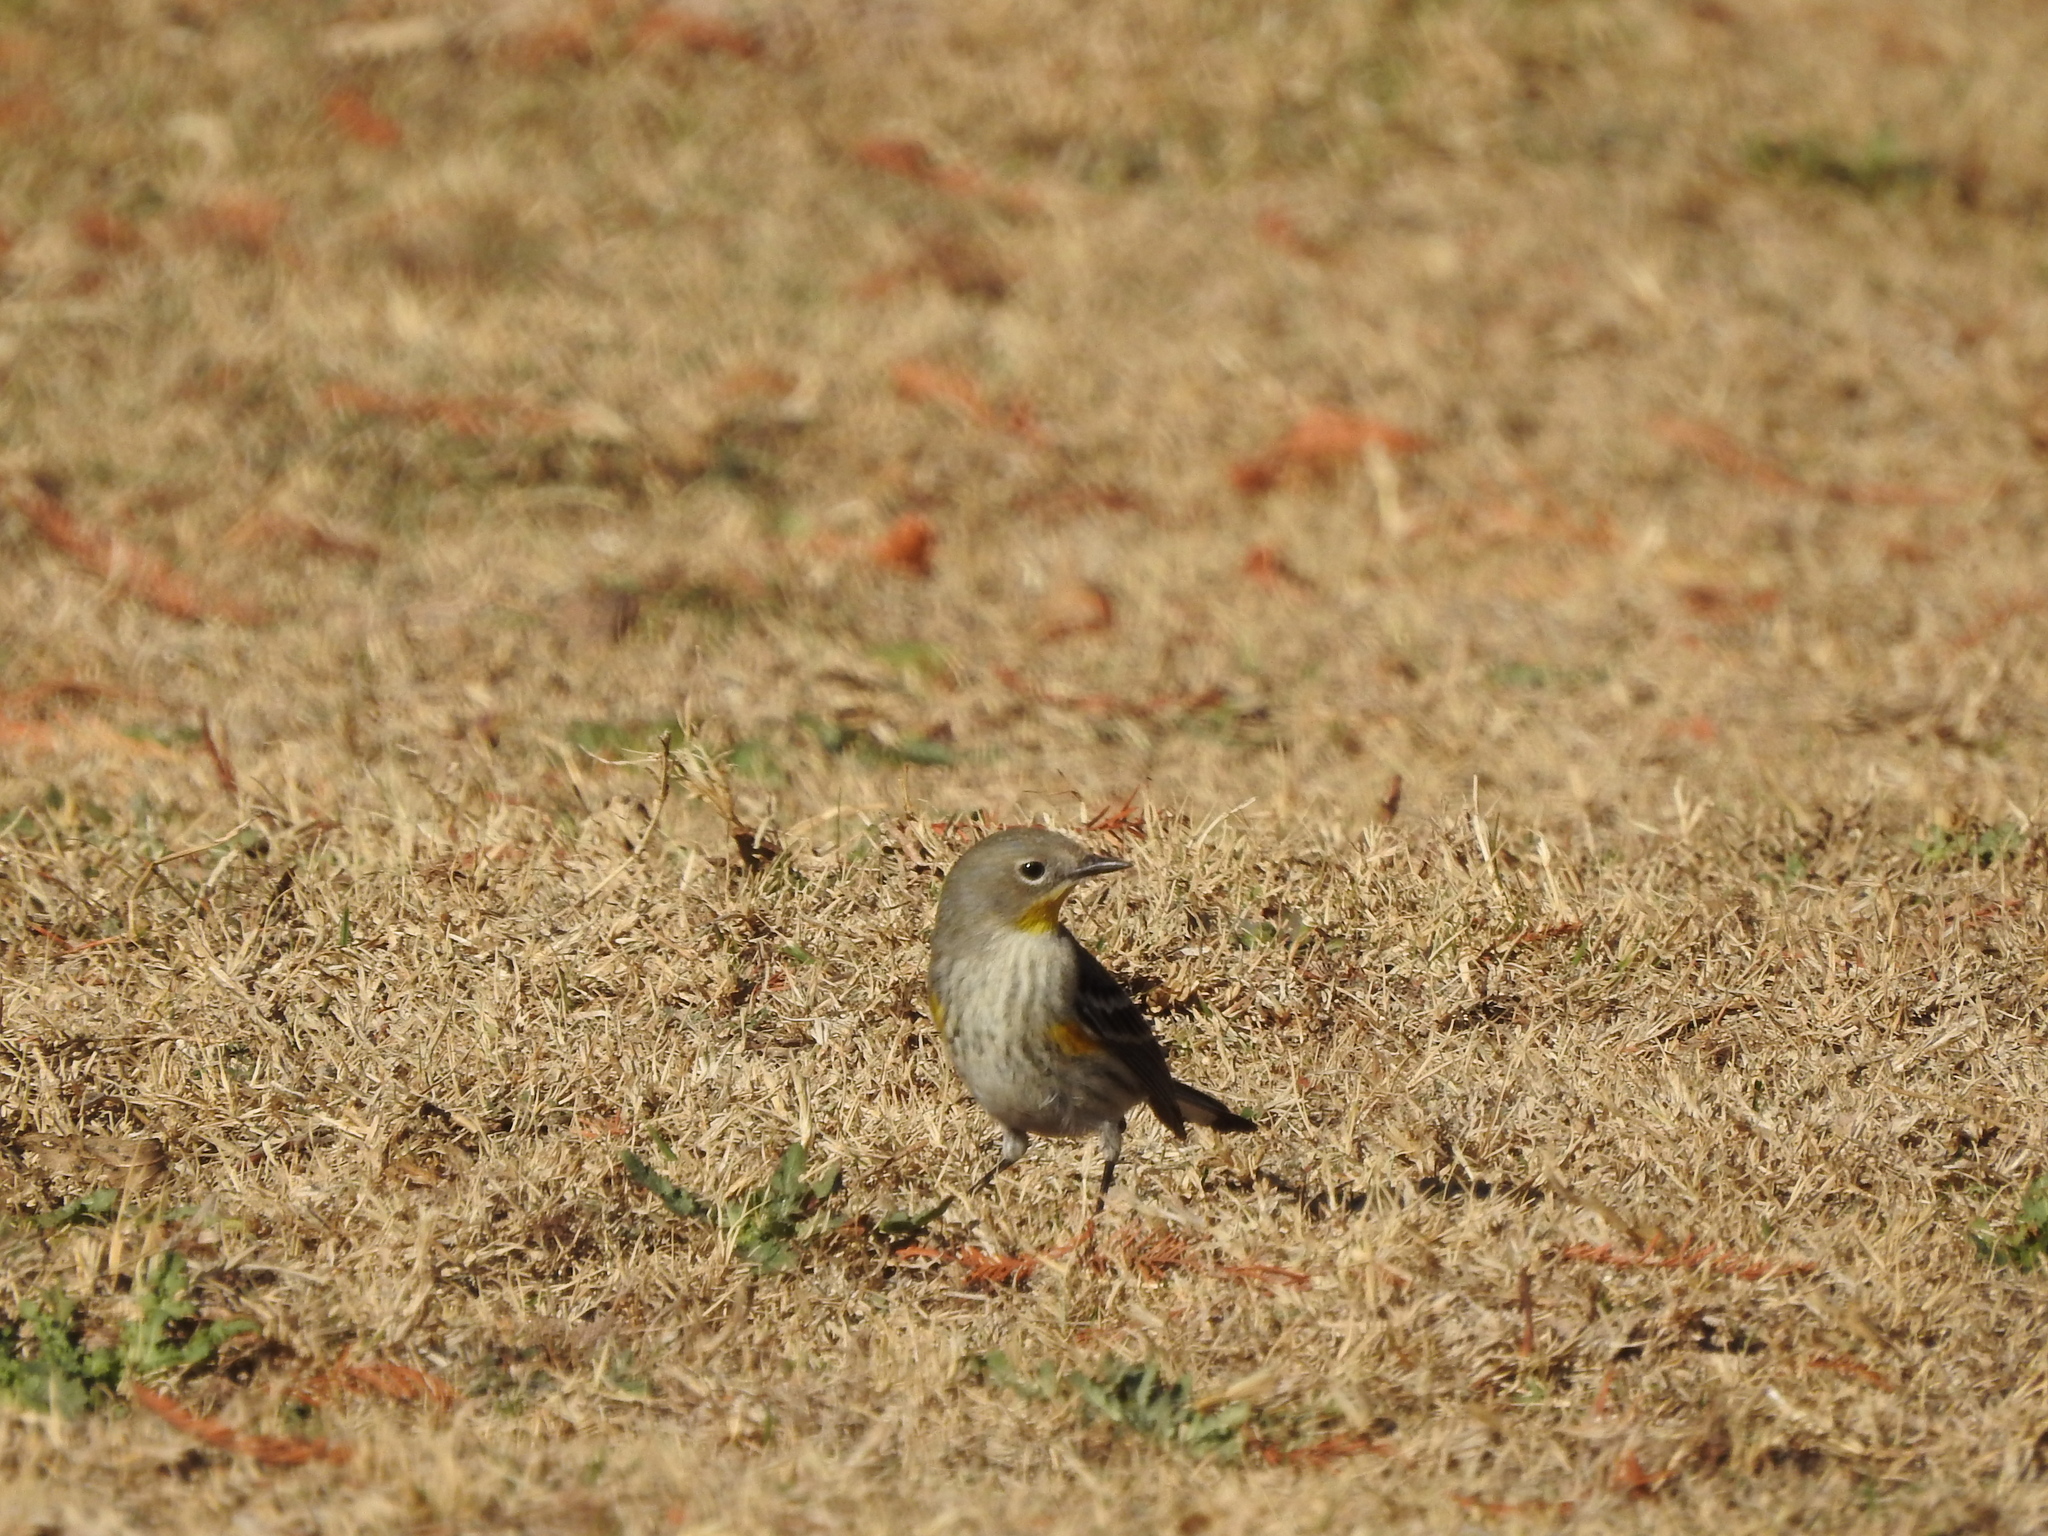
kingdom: Animalia
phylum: Chordata
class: Aves
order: Passeriformes
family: Parulidae
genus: Setophaga
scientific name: Setophaga coronata
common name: Myrtle warbler
